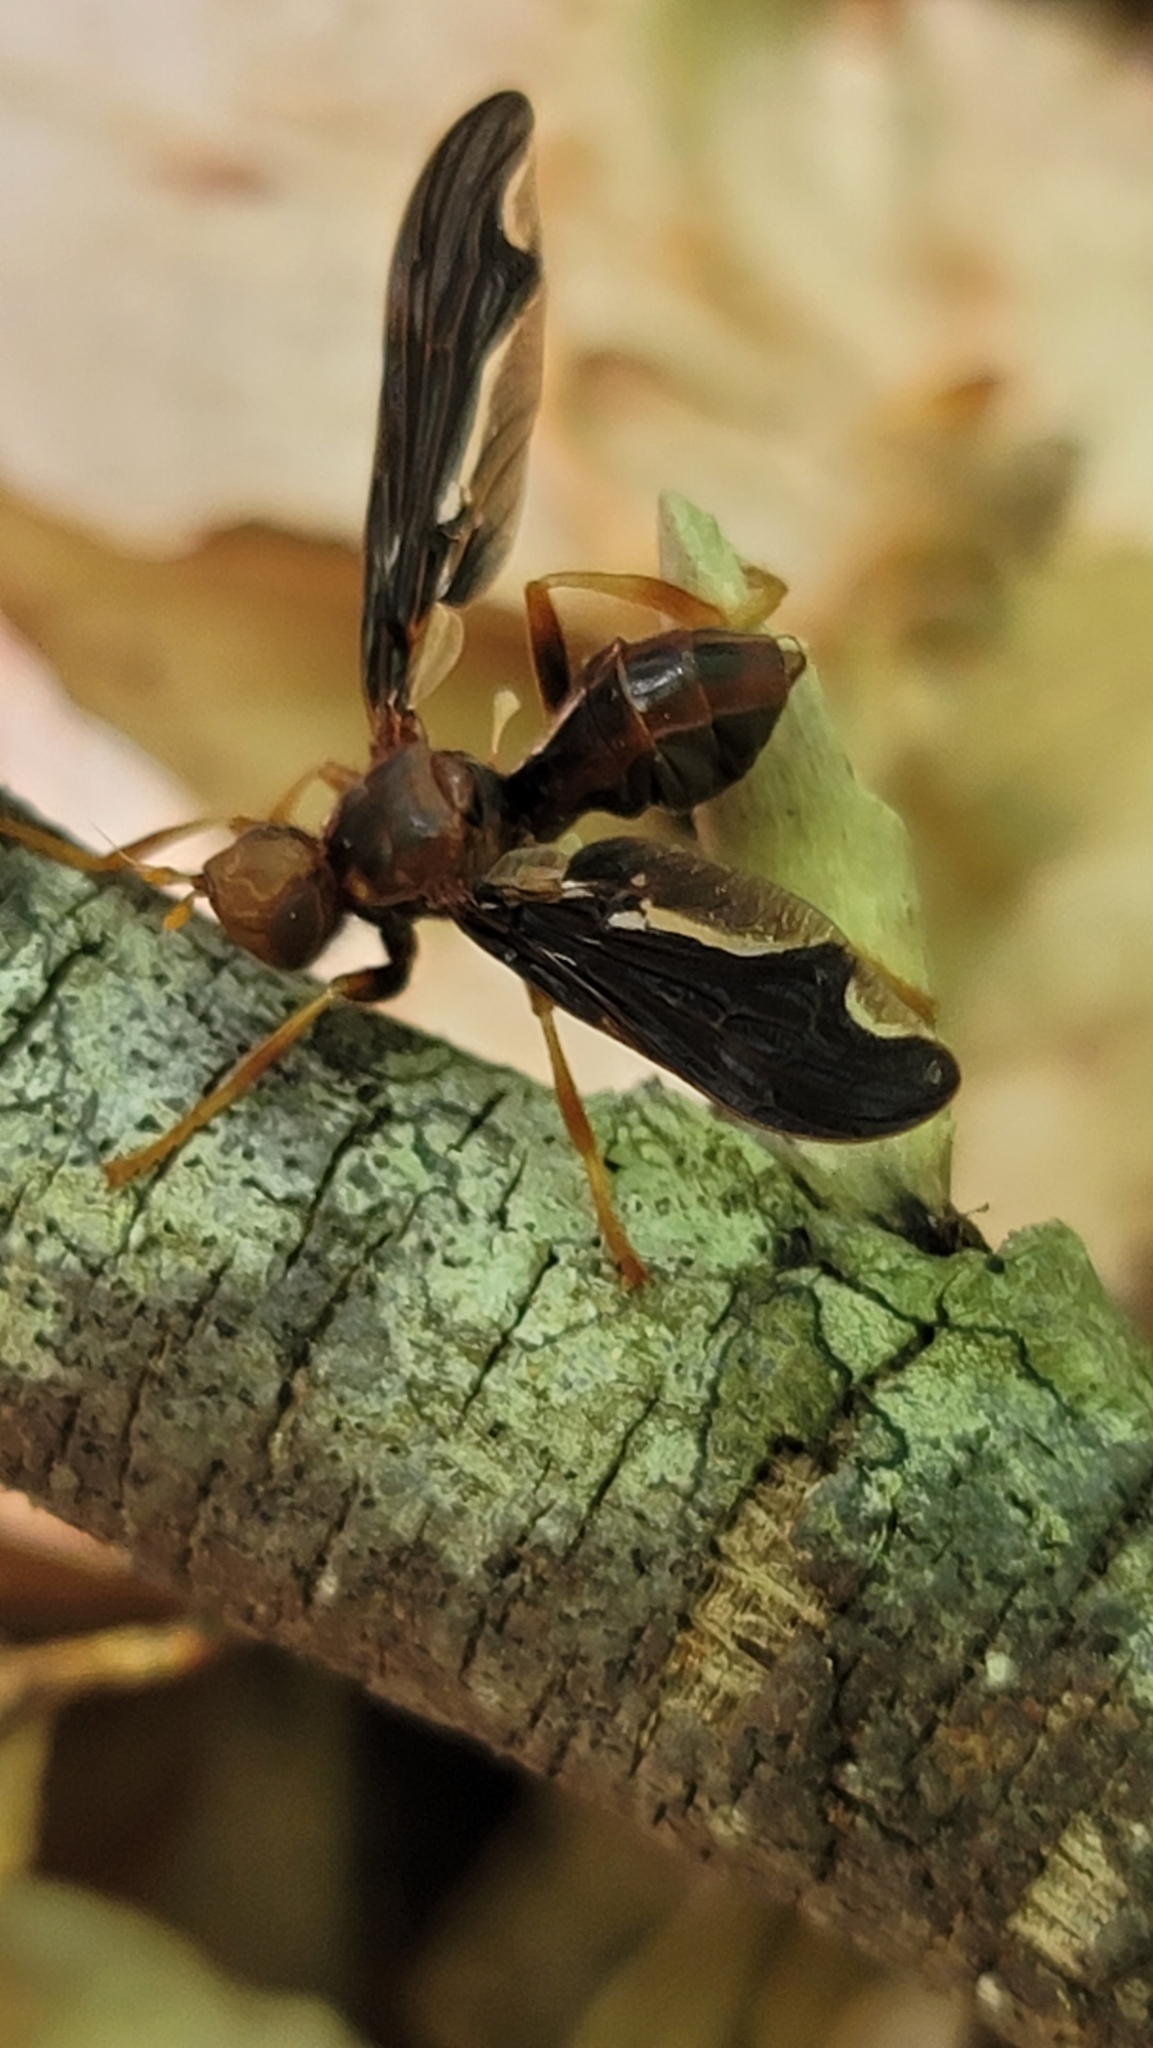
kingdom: Animalia
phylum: Arthropoda
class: Insecta
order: Diptera
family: Pyrgotidae
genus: Pyrgota
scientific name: Pyrgota undata
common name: Waved light fly
